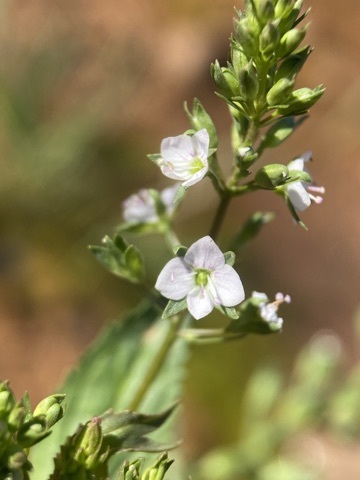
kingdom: Plantae
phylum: Tracheophyta
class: Magnoliopsida
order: Lamiales
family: Plantaginaceae
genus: Veronica
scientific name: Veronica anagallis-aquatica
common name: Water speedwell
